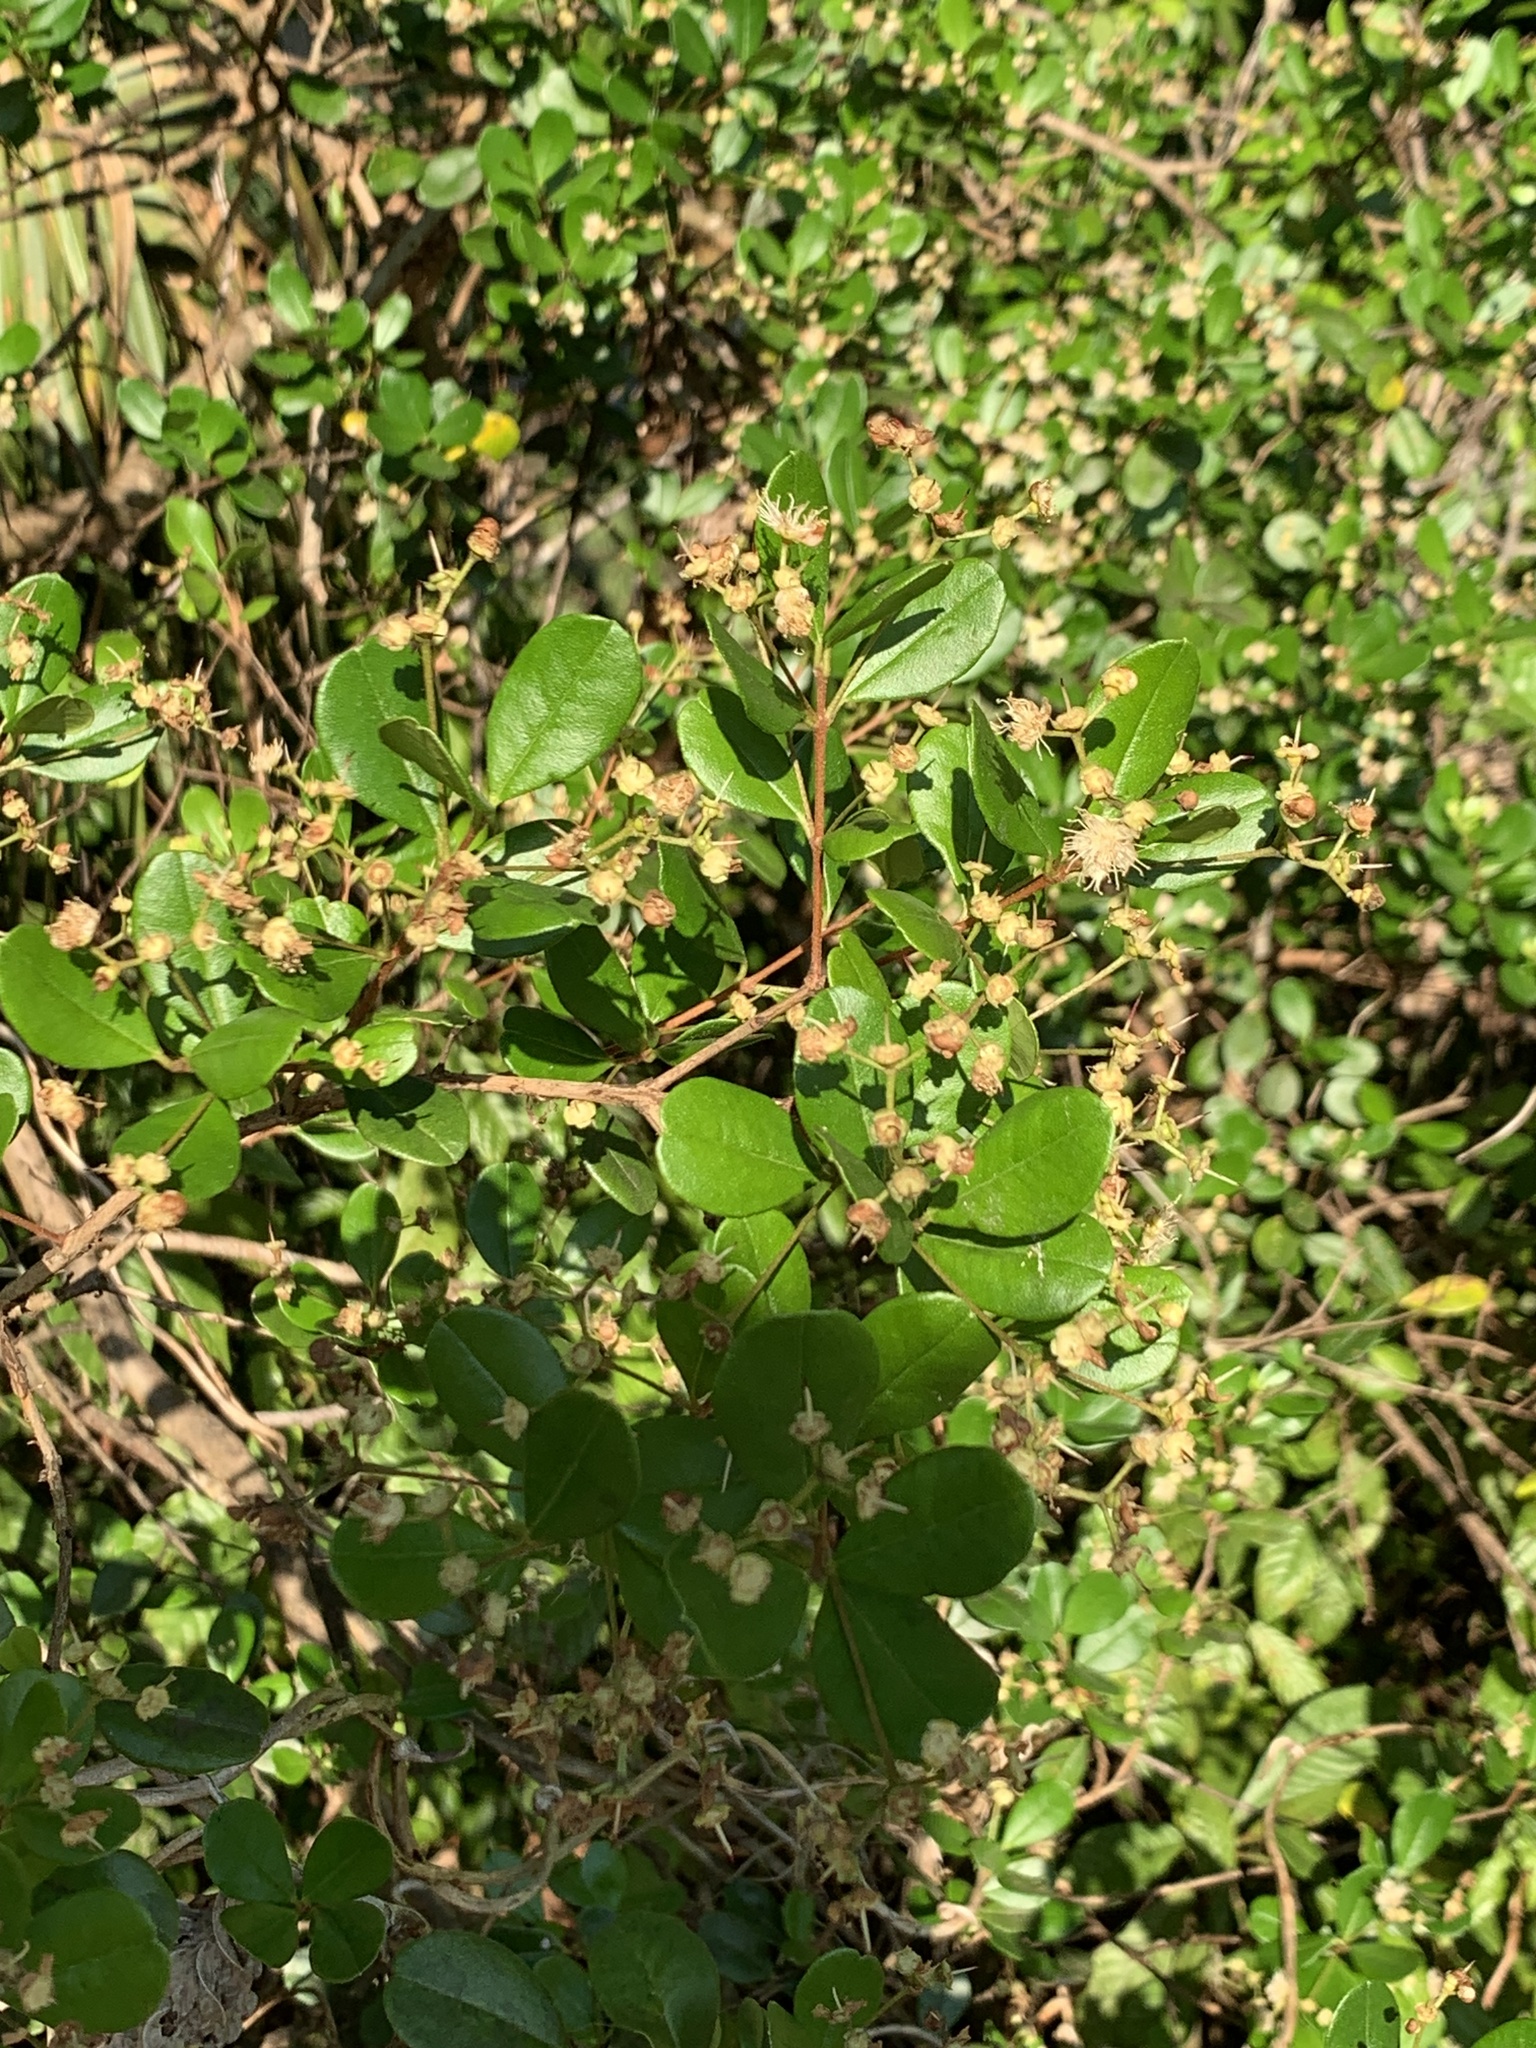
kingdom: Plantae
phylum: Tracheophyta
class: Magnoliopsida
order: Myrtales
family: Myrtaceae
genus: Myrcianthes
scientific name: Myrcianthes fragrans
